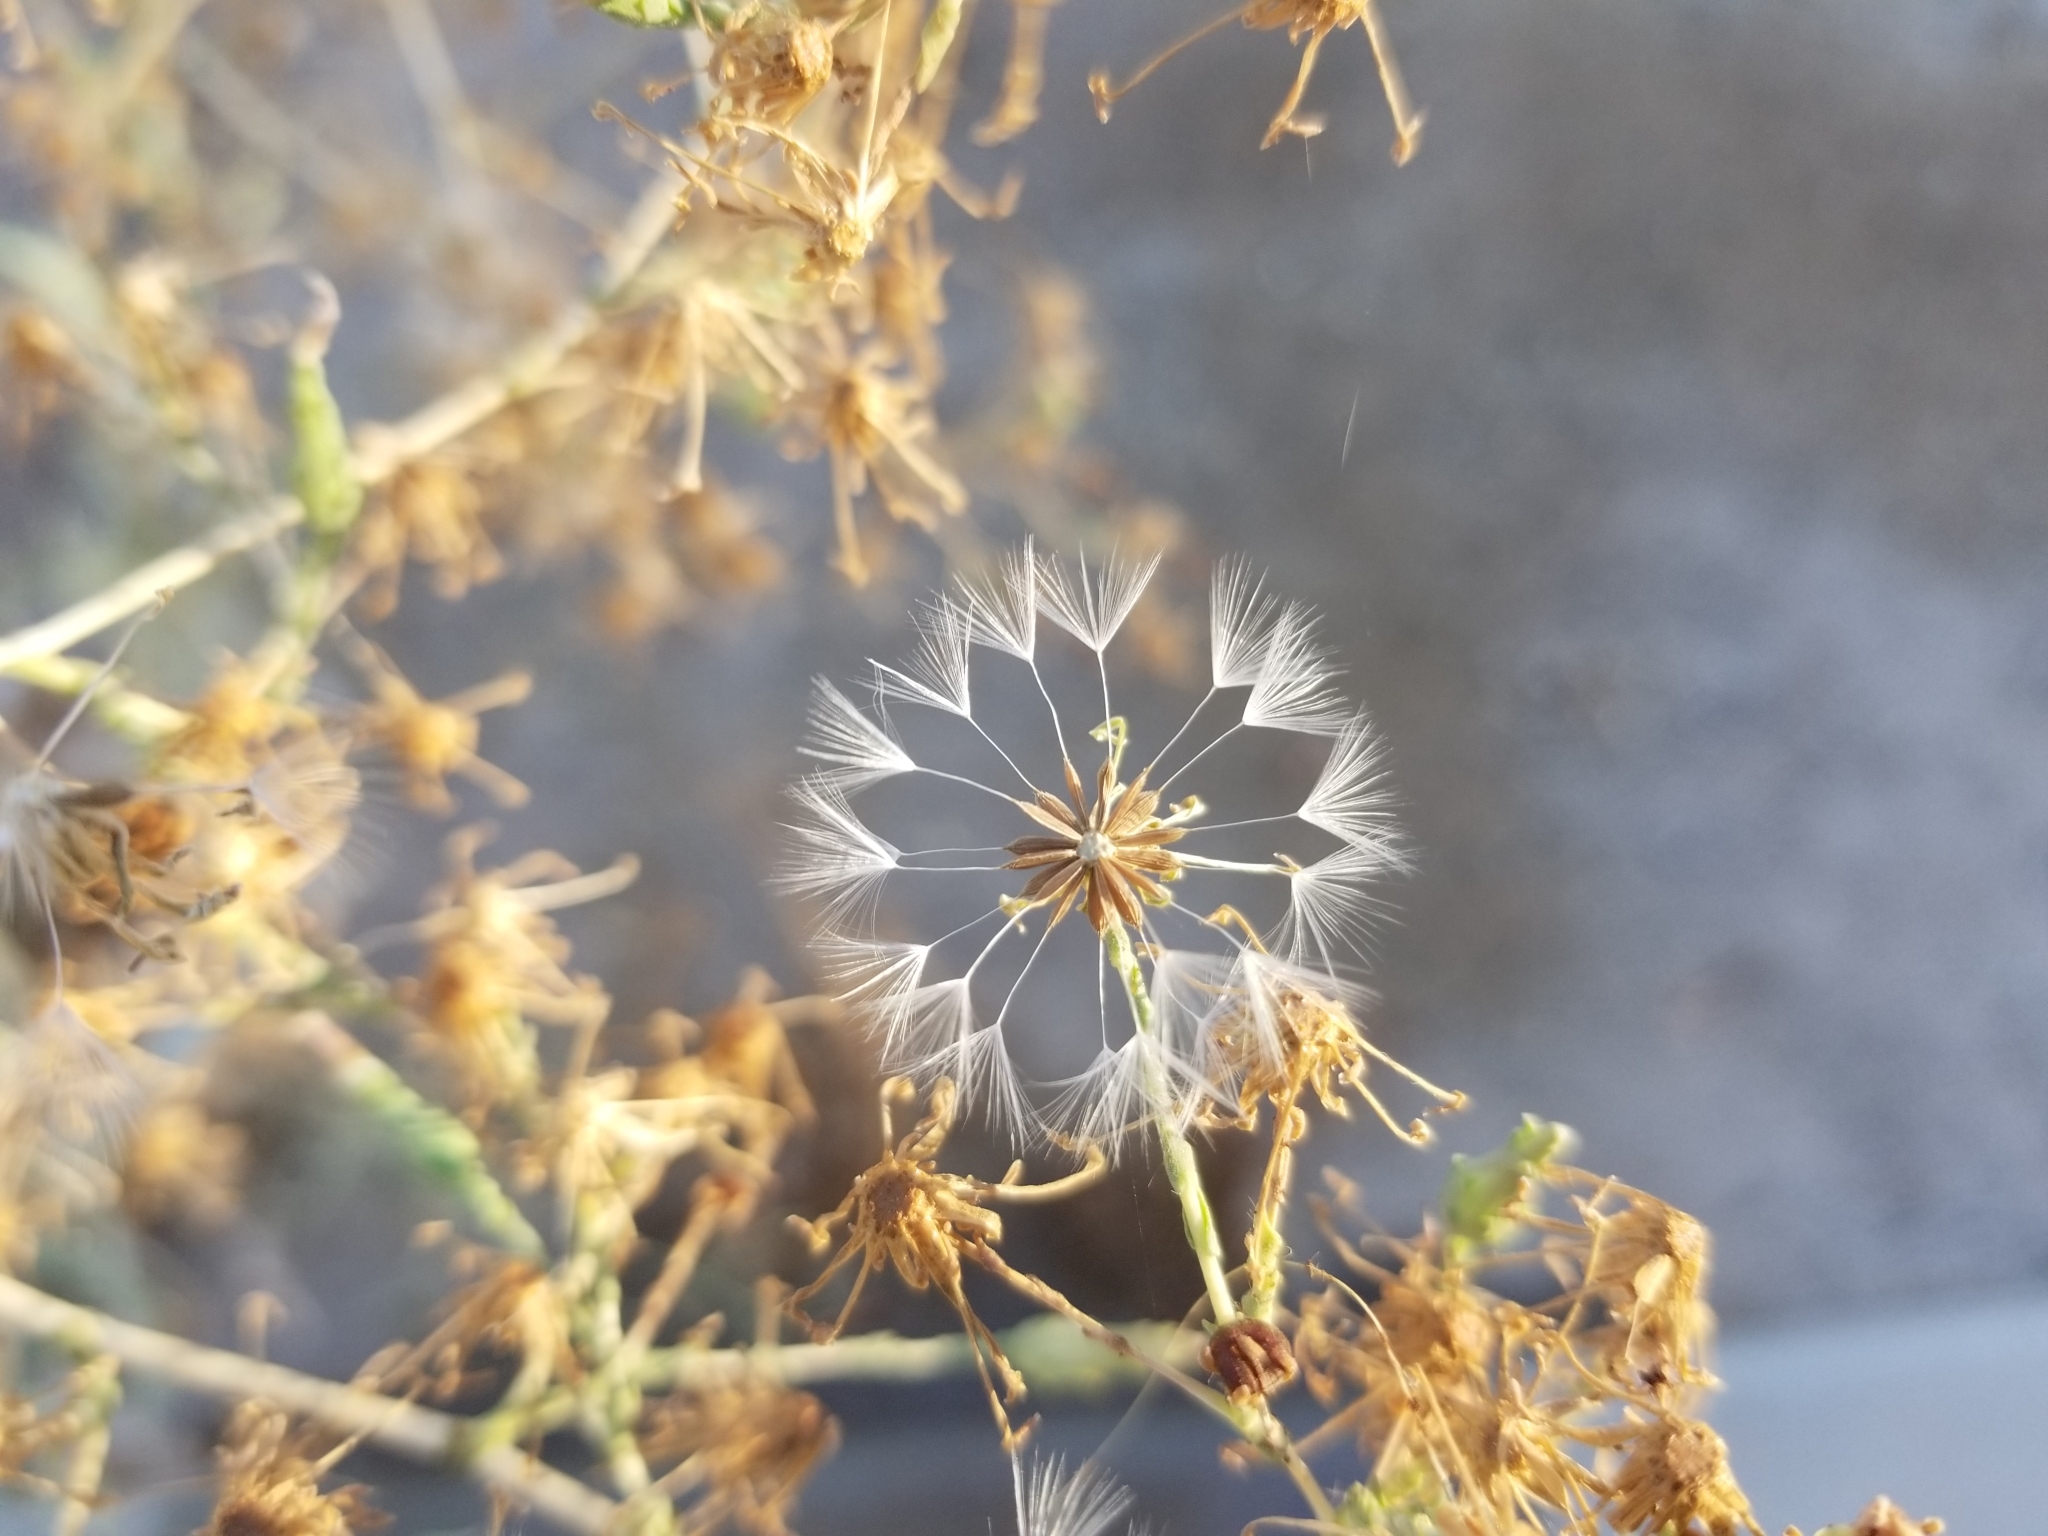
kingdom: Plantae
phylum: Tracheophyta
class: Magnoliopsida
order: Asterales
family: Asteraceae
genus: Lactuca
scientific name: Lactuca serriola
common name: Prickly lettuce
